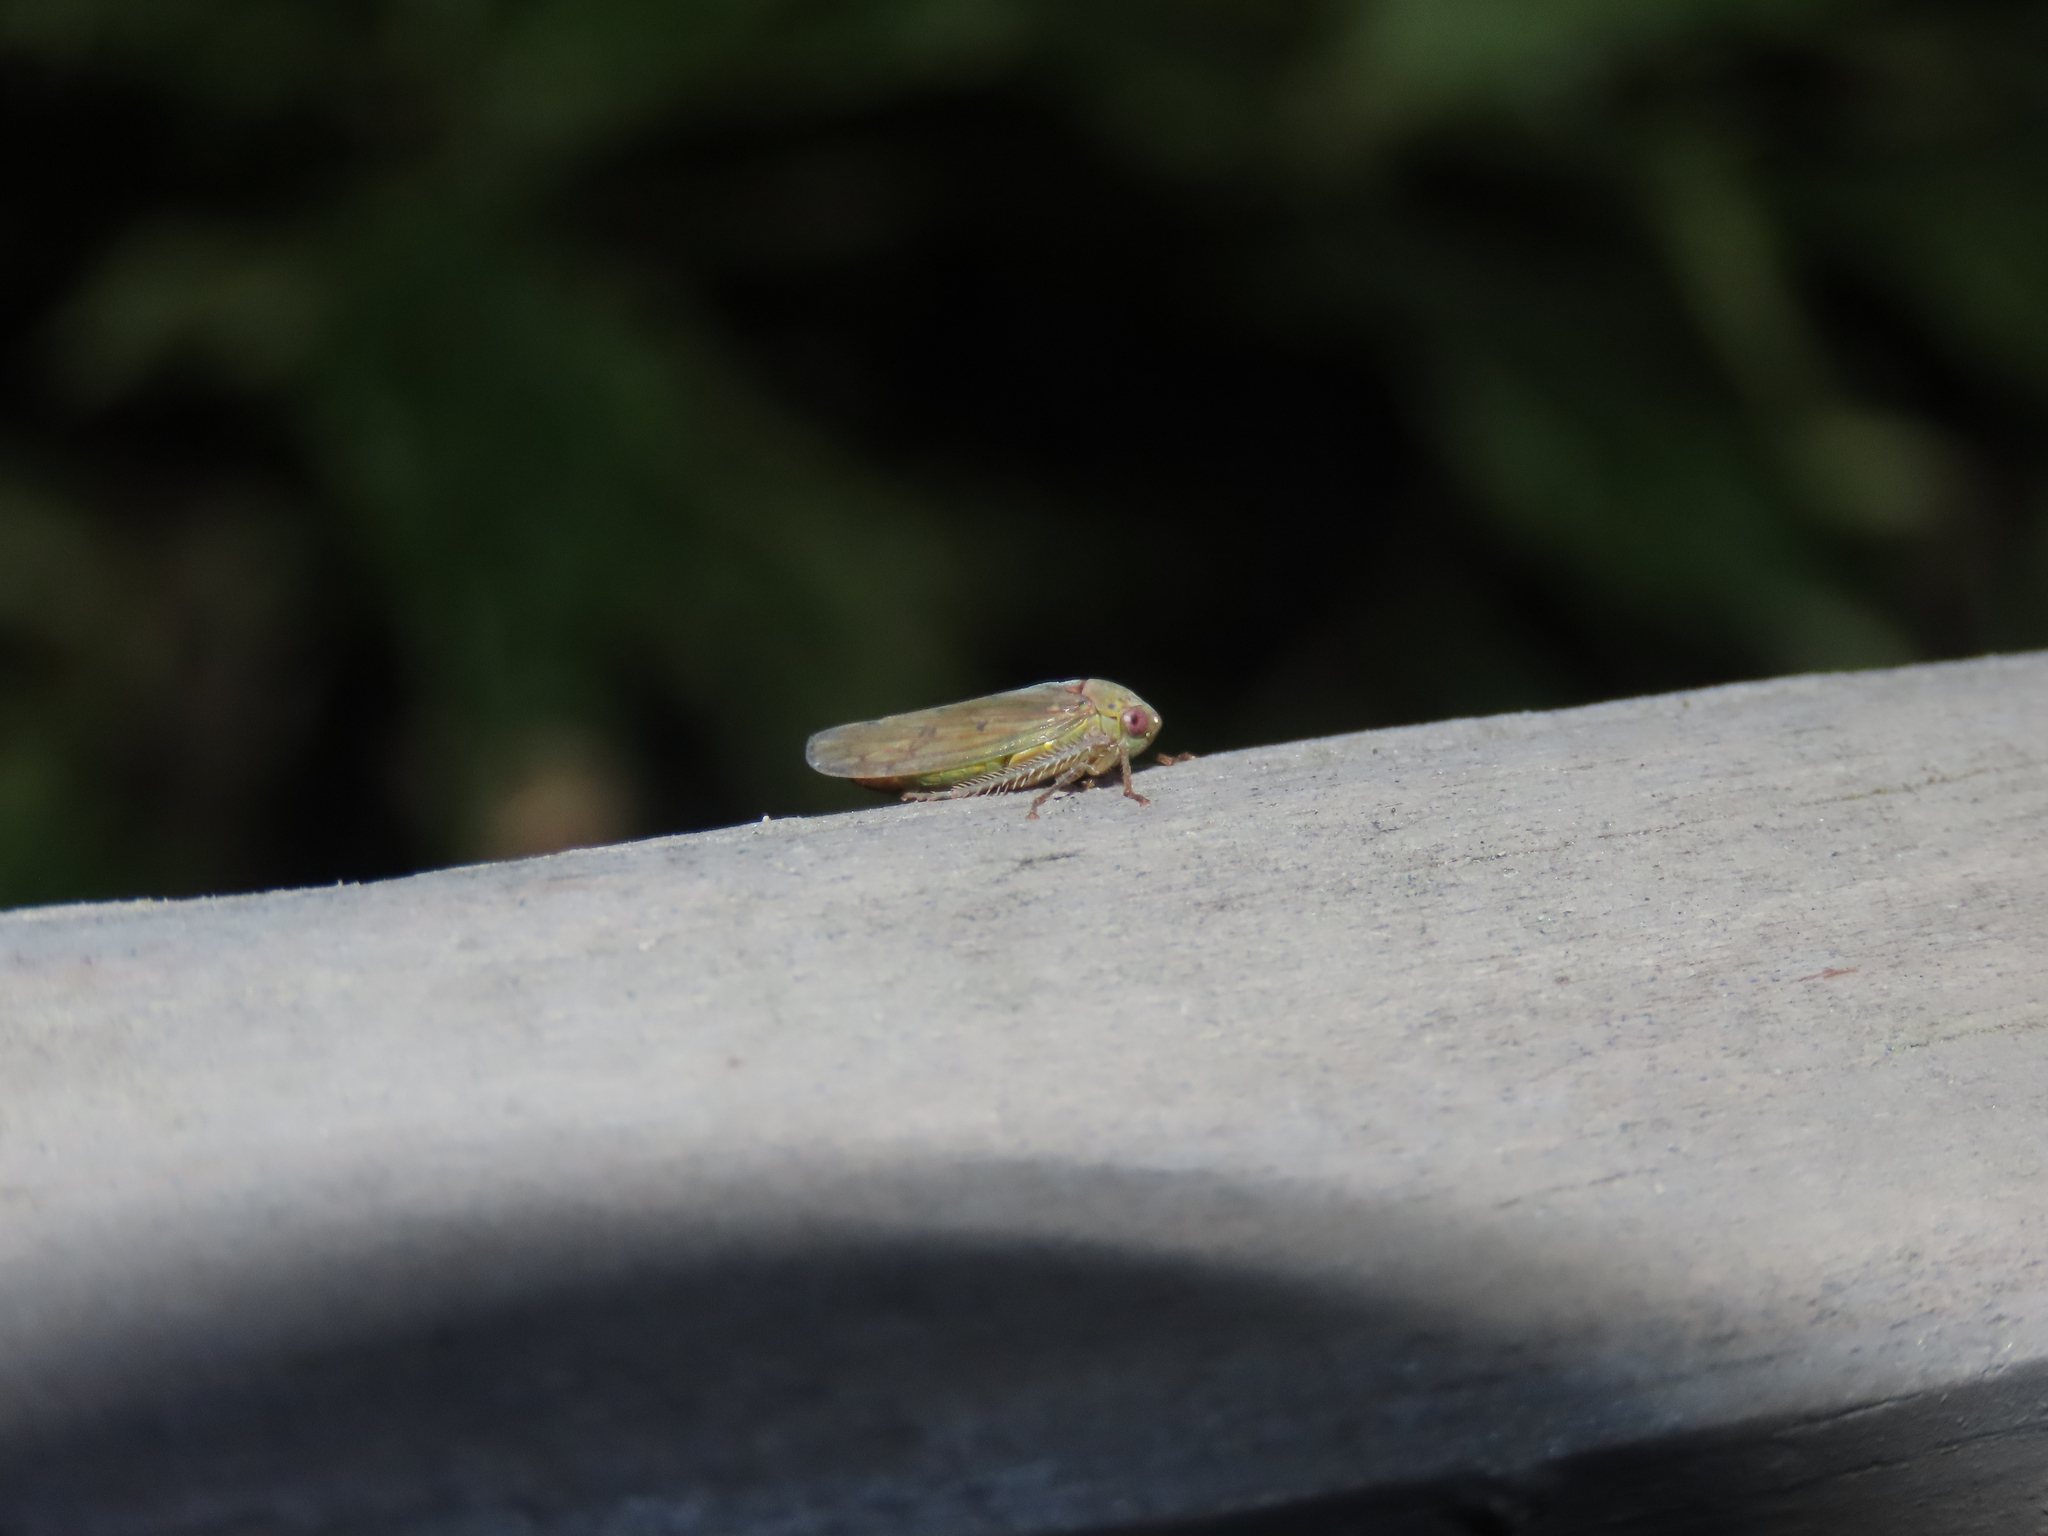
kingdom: Animalia
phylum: Arthropoda
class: Insecta
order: Hemiptera
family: Cicadellidae
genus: Polana
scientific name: Polana quadrinotata
